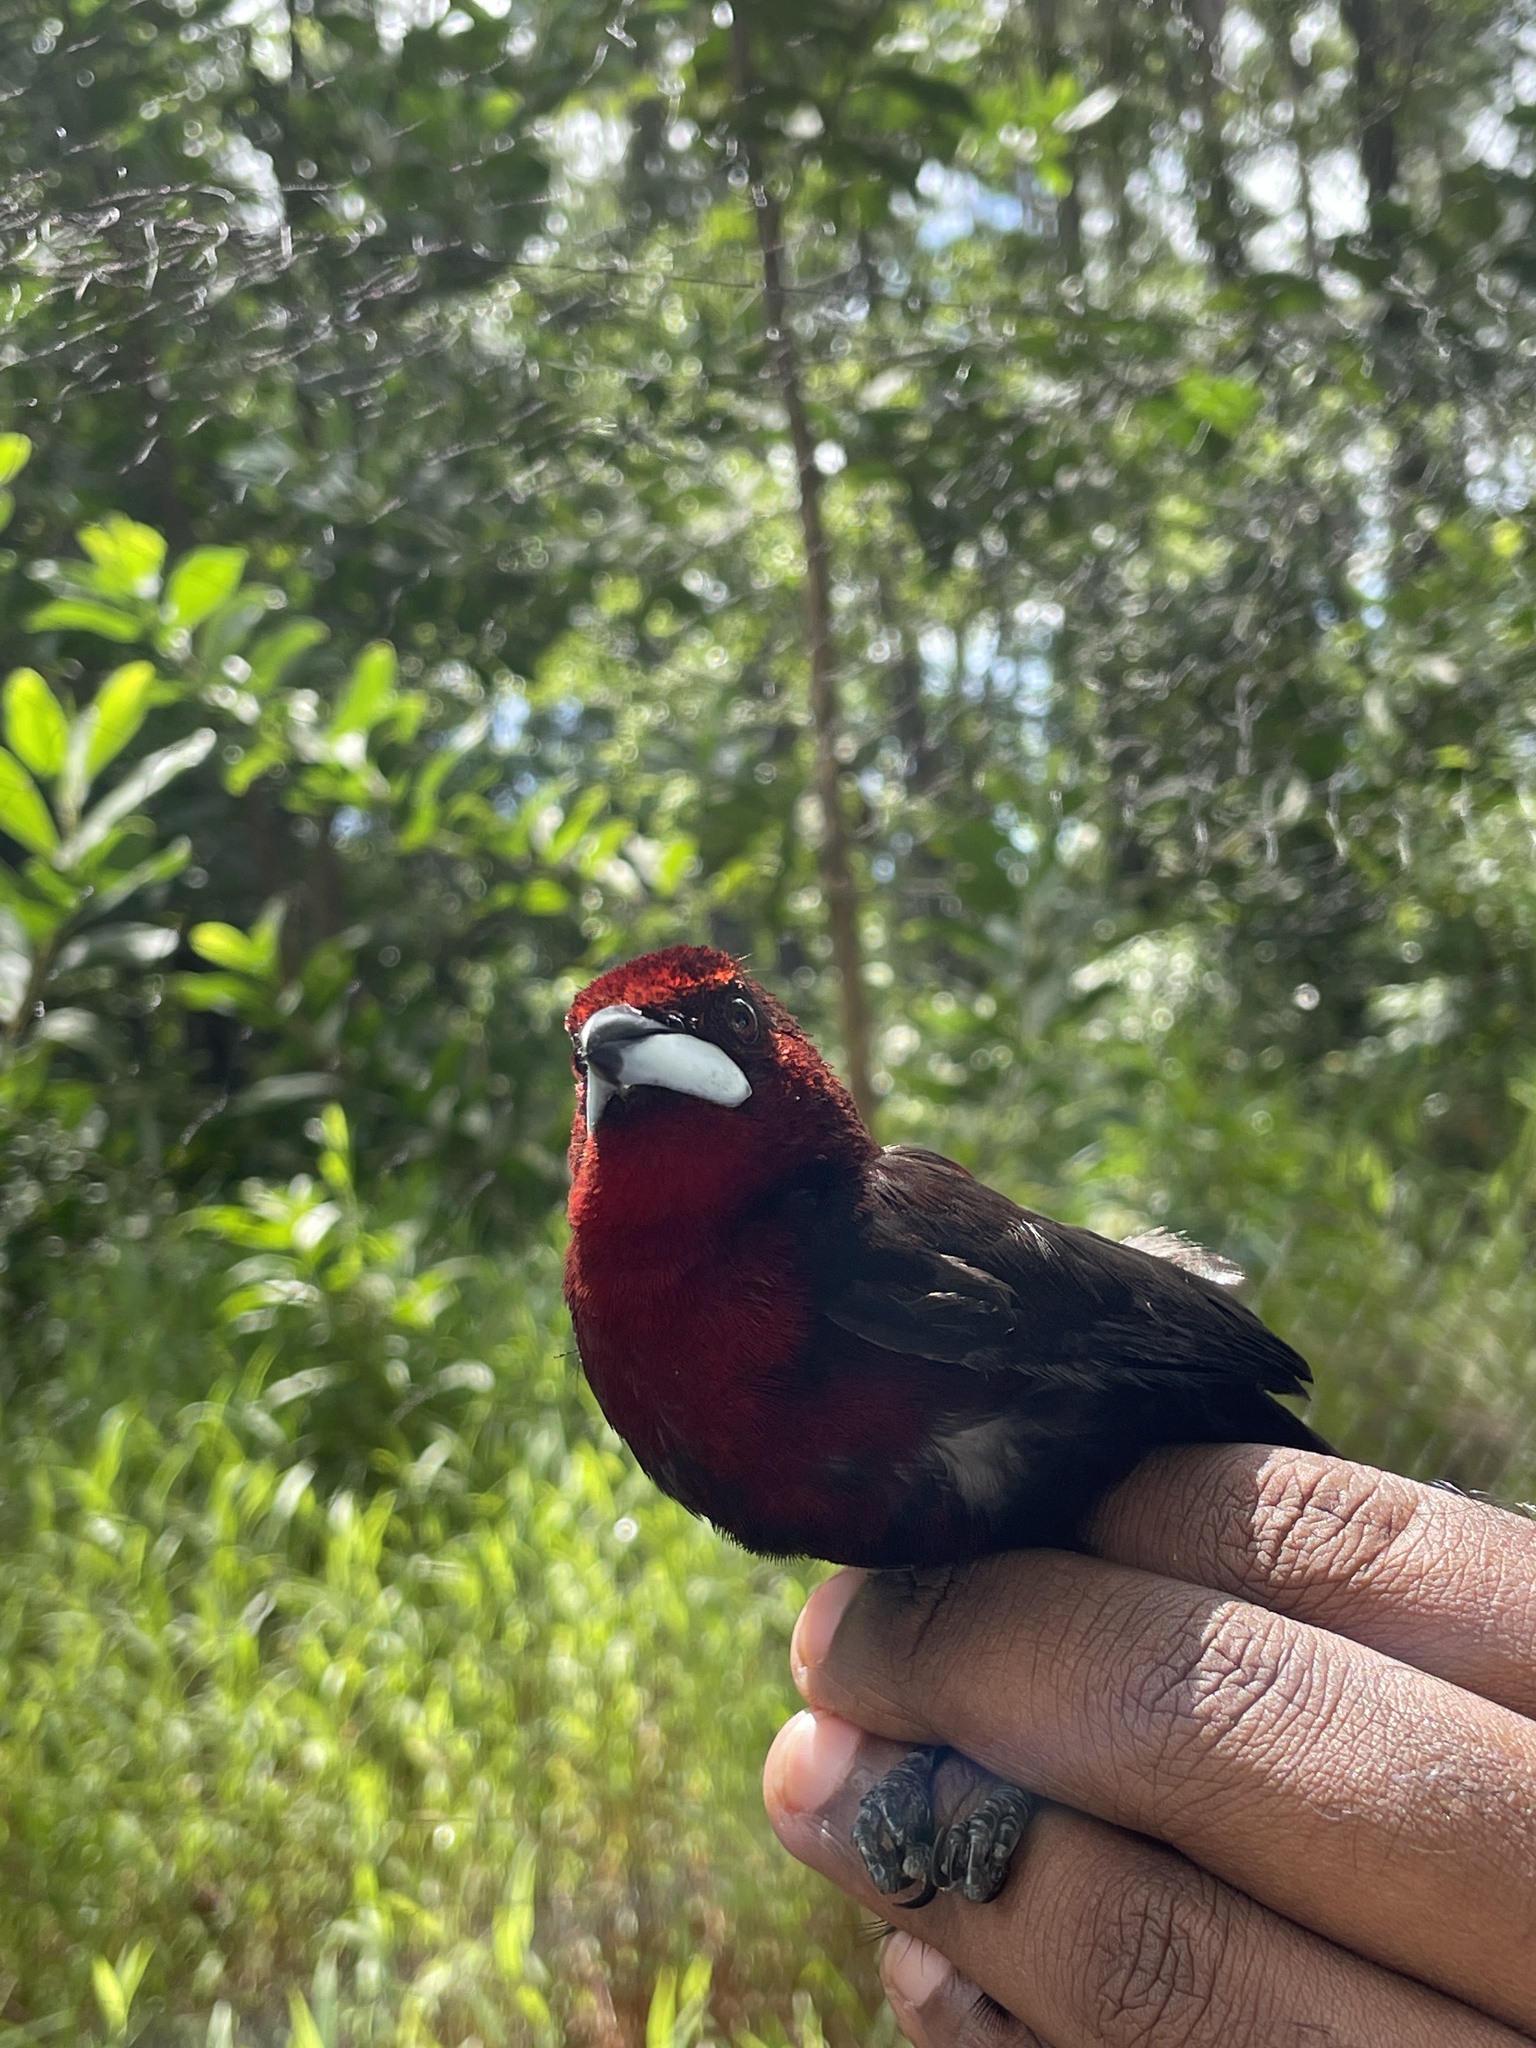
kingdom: Animalia
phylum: Chordata
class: Aves
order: Passeriformes
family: Thraupidae
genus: Ramphocelus
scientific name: Ramphocelus carbo
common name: Silver-beaked tanager
